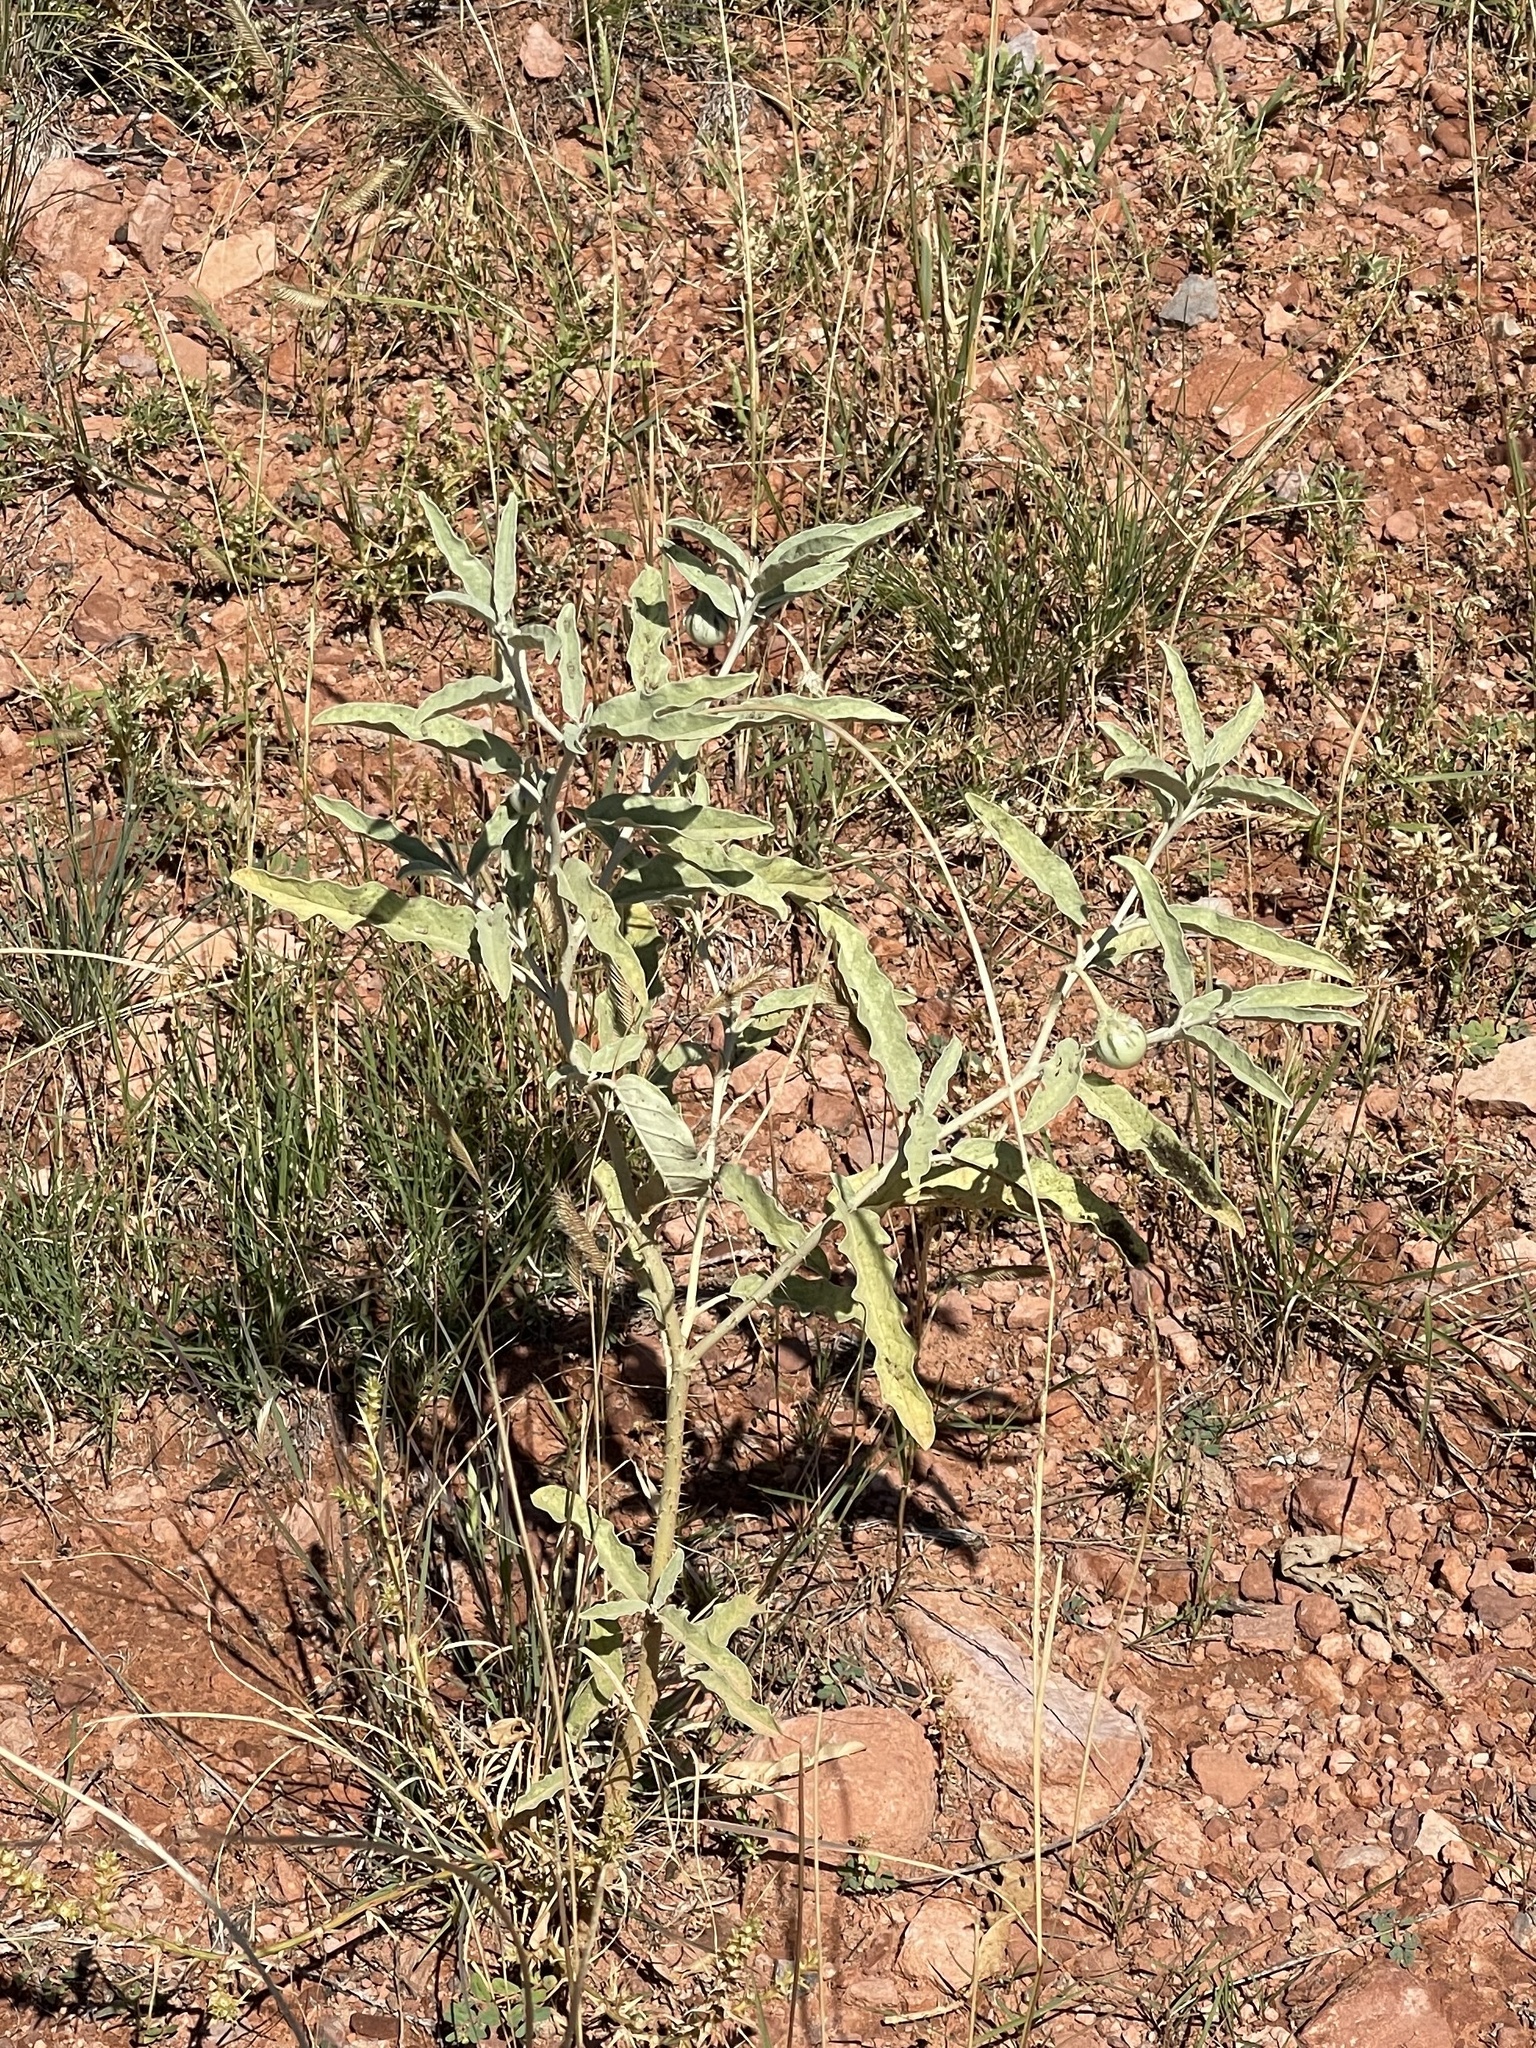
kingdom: Plantae
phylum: Tracheophyta
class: Magnoliopsida
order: Solanales
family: Solanaceae
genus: Solanum
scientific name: Solanum elaeagnifolium
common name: Silverleaf nightshade
